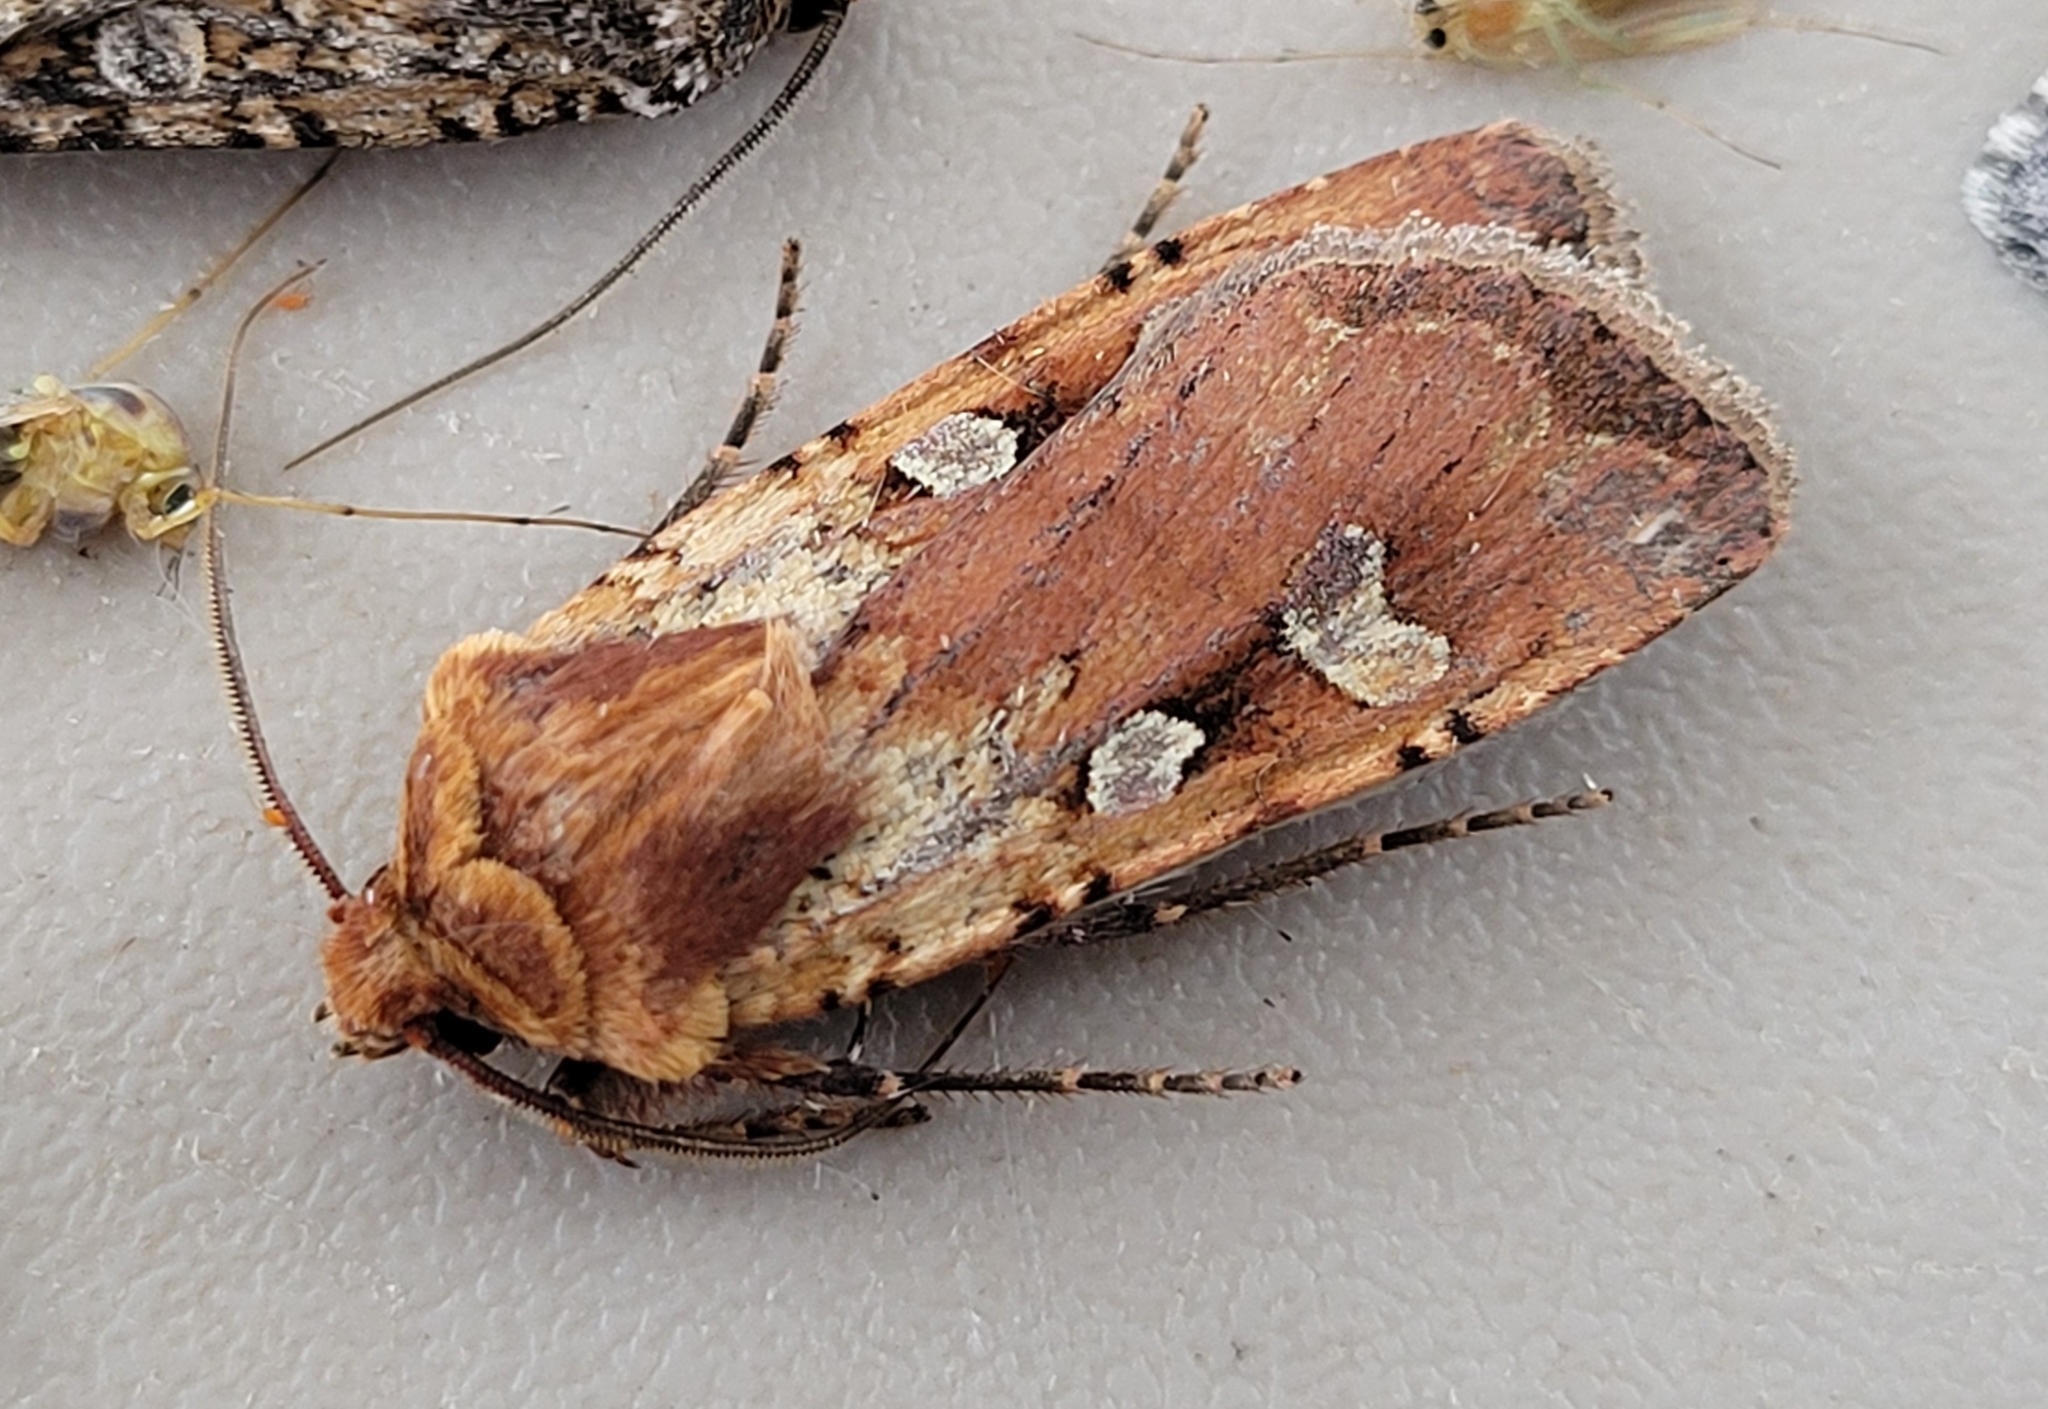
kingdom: Animalia
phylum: Arthropoda
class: Insecta
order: Lepidoptera
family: Noctuidae
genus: Euxoa
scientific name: Euxoa basalis
